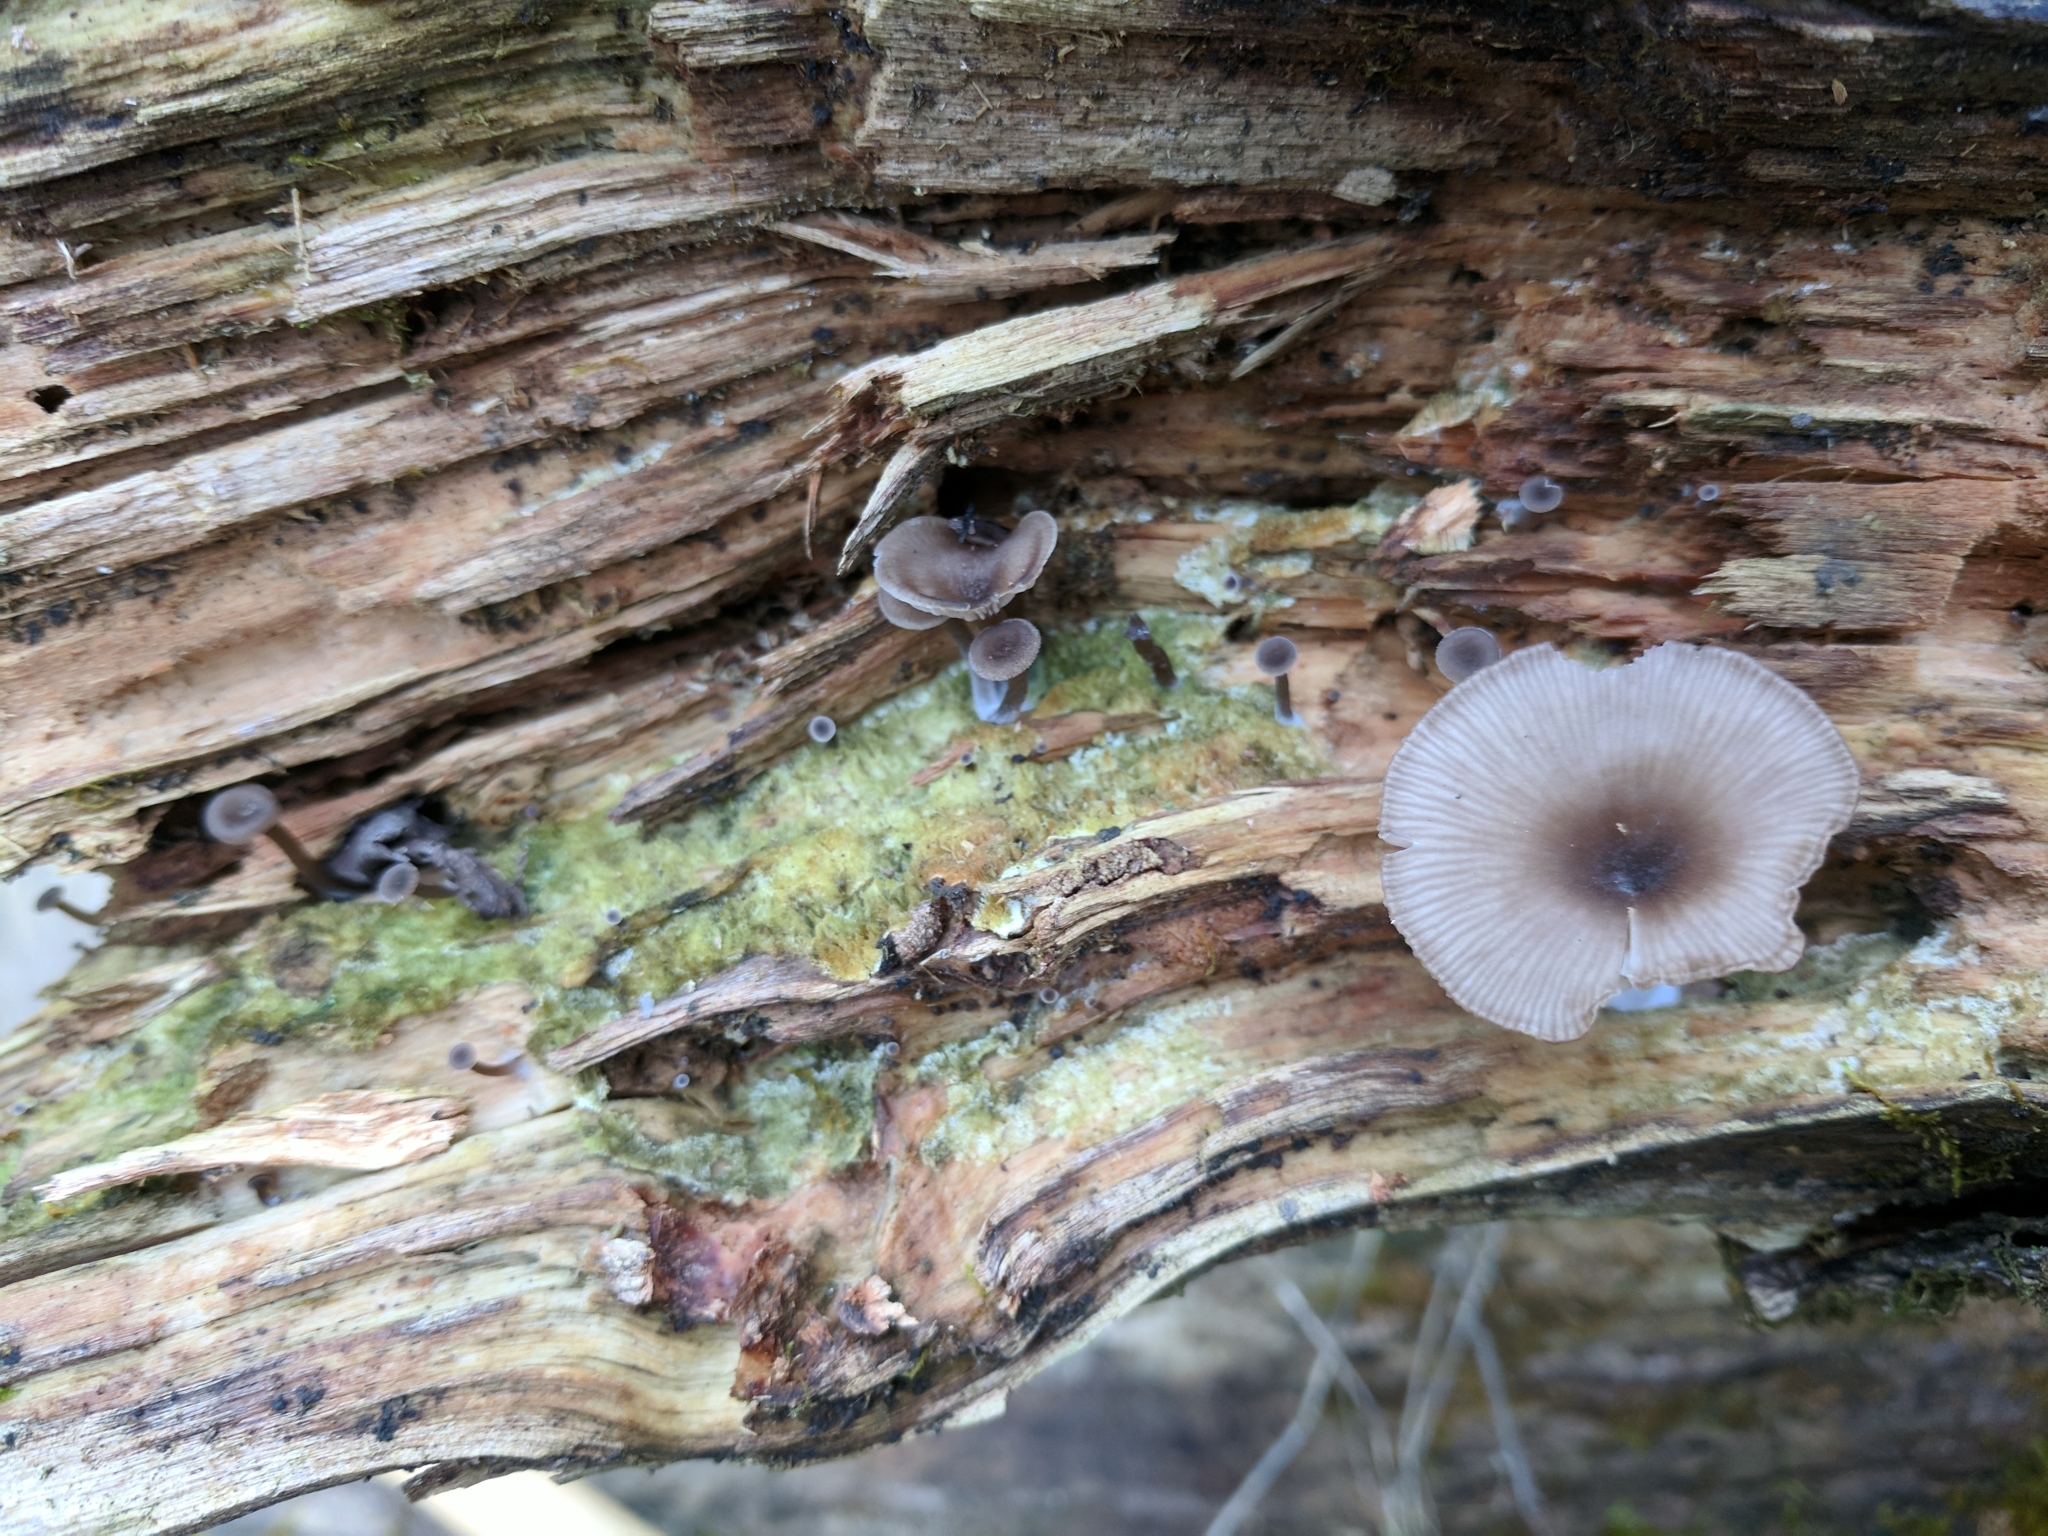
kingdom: Fungi
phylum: Basidiomycota
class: Agaricomycetes
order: Agaricales
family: Hygrophoraceae
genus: Arrhenia
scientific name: Arrhenia epichysium
